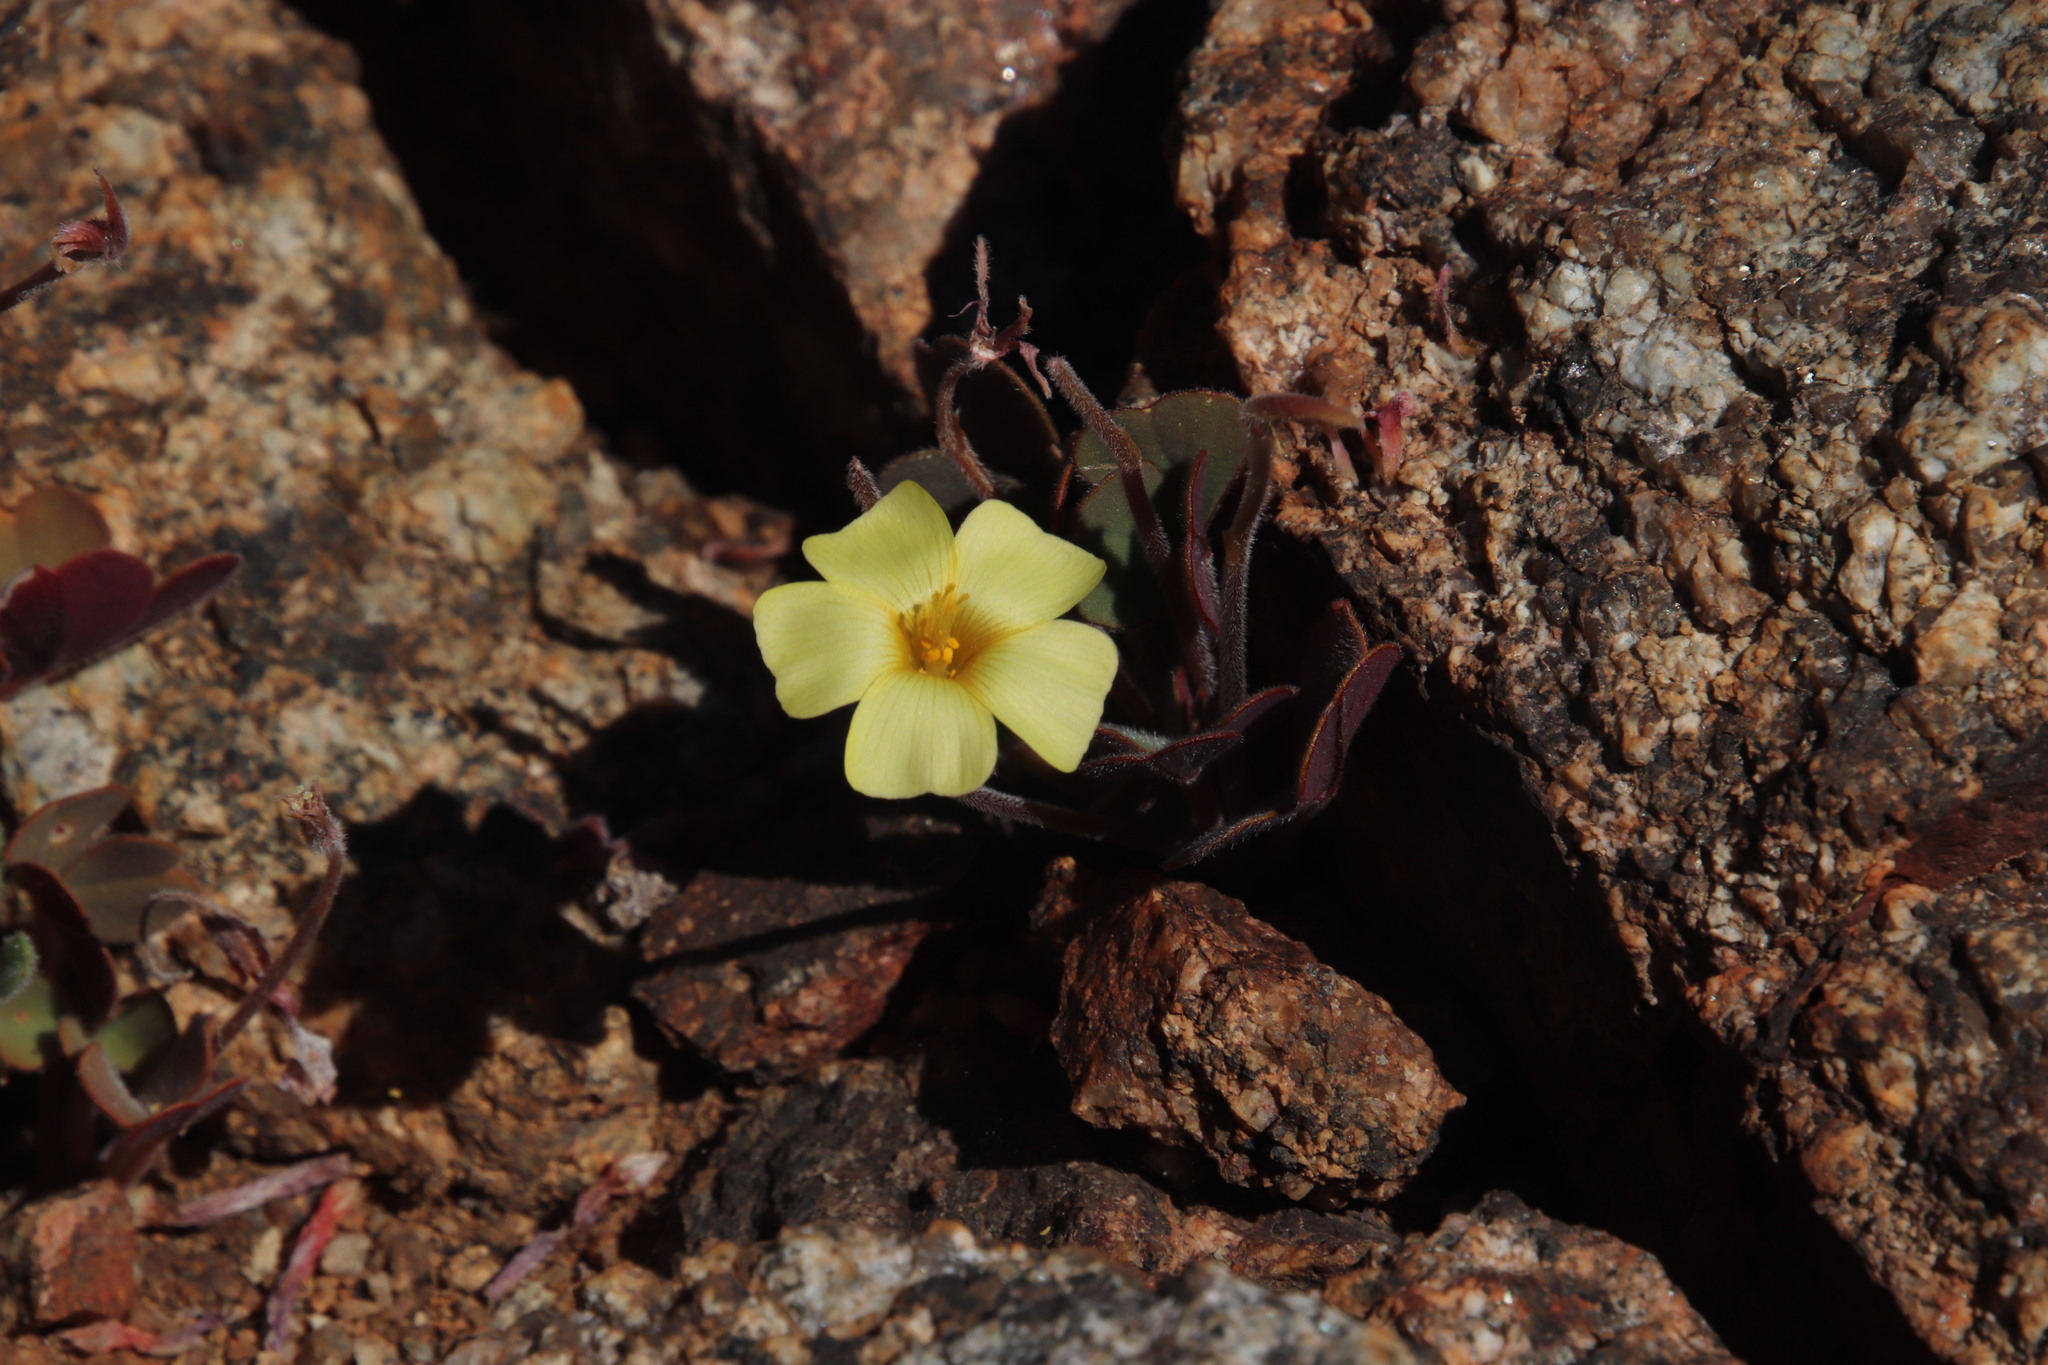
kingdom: Plantae
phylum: Tracheophyta
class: Magnoliopsida
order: Oxalidales
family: Oxalidaceae
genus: Oxalis
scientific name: Oxalis obtusa
